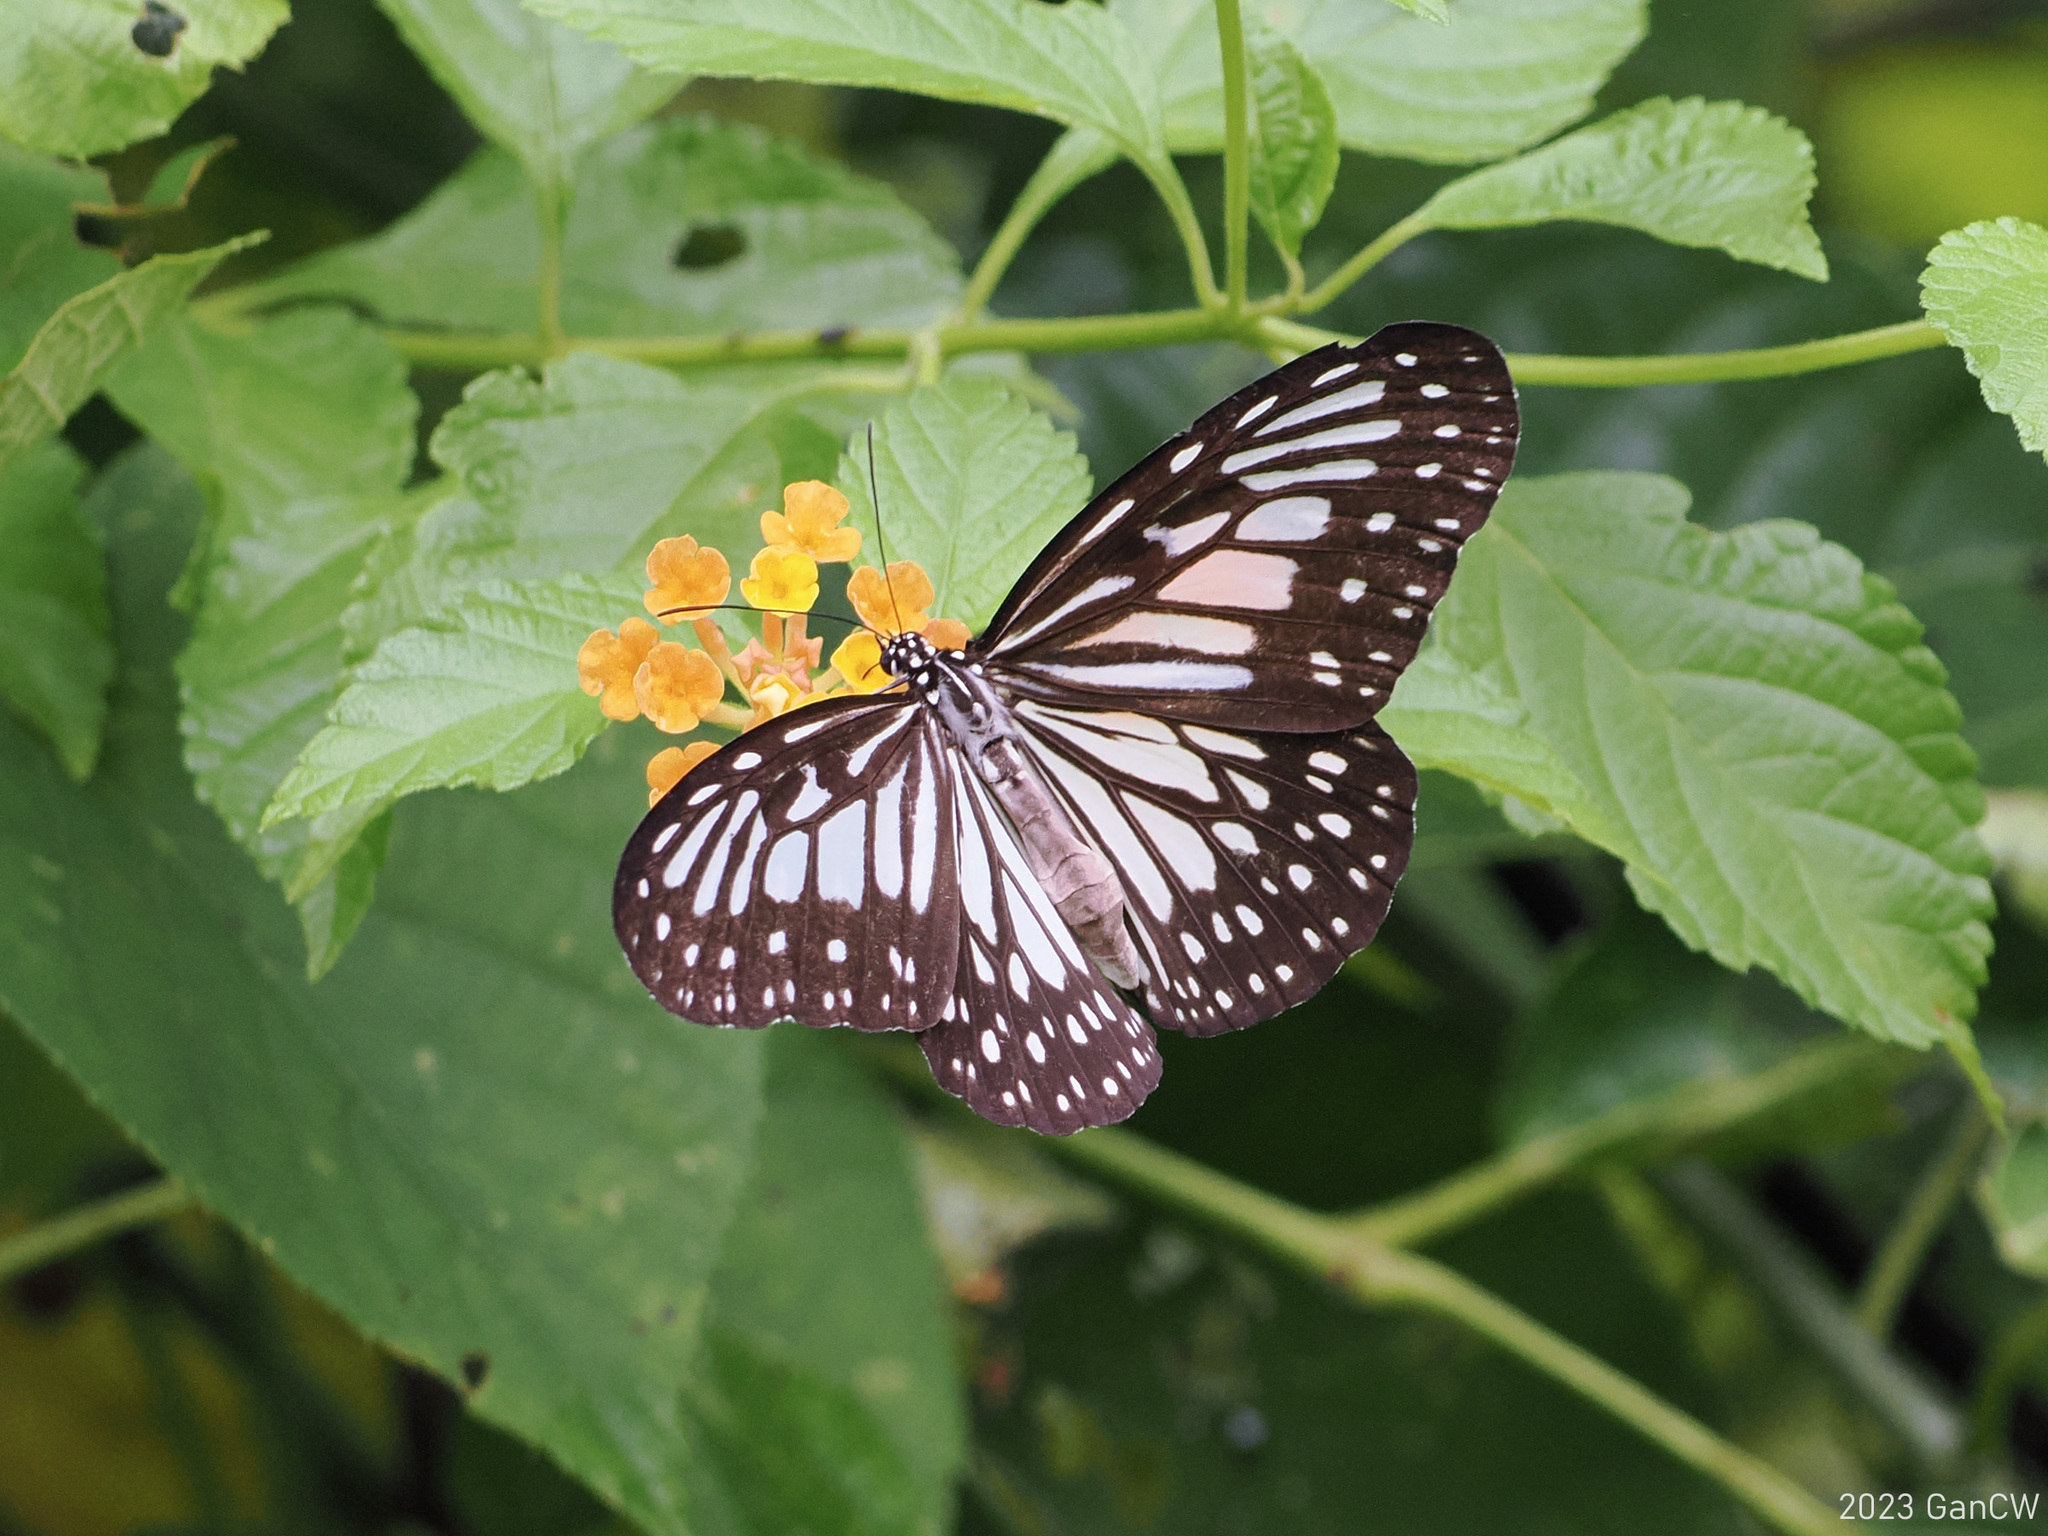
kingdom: Animalia
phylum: Arthropoda
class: Insecta
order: Lepidoptera
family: Nymphalidae
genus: Ideopsis
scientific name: Ideopsis juventa
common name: Grey glassy tiger
